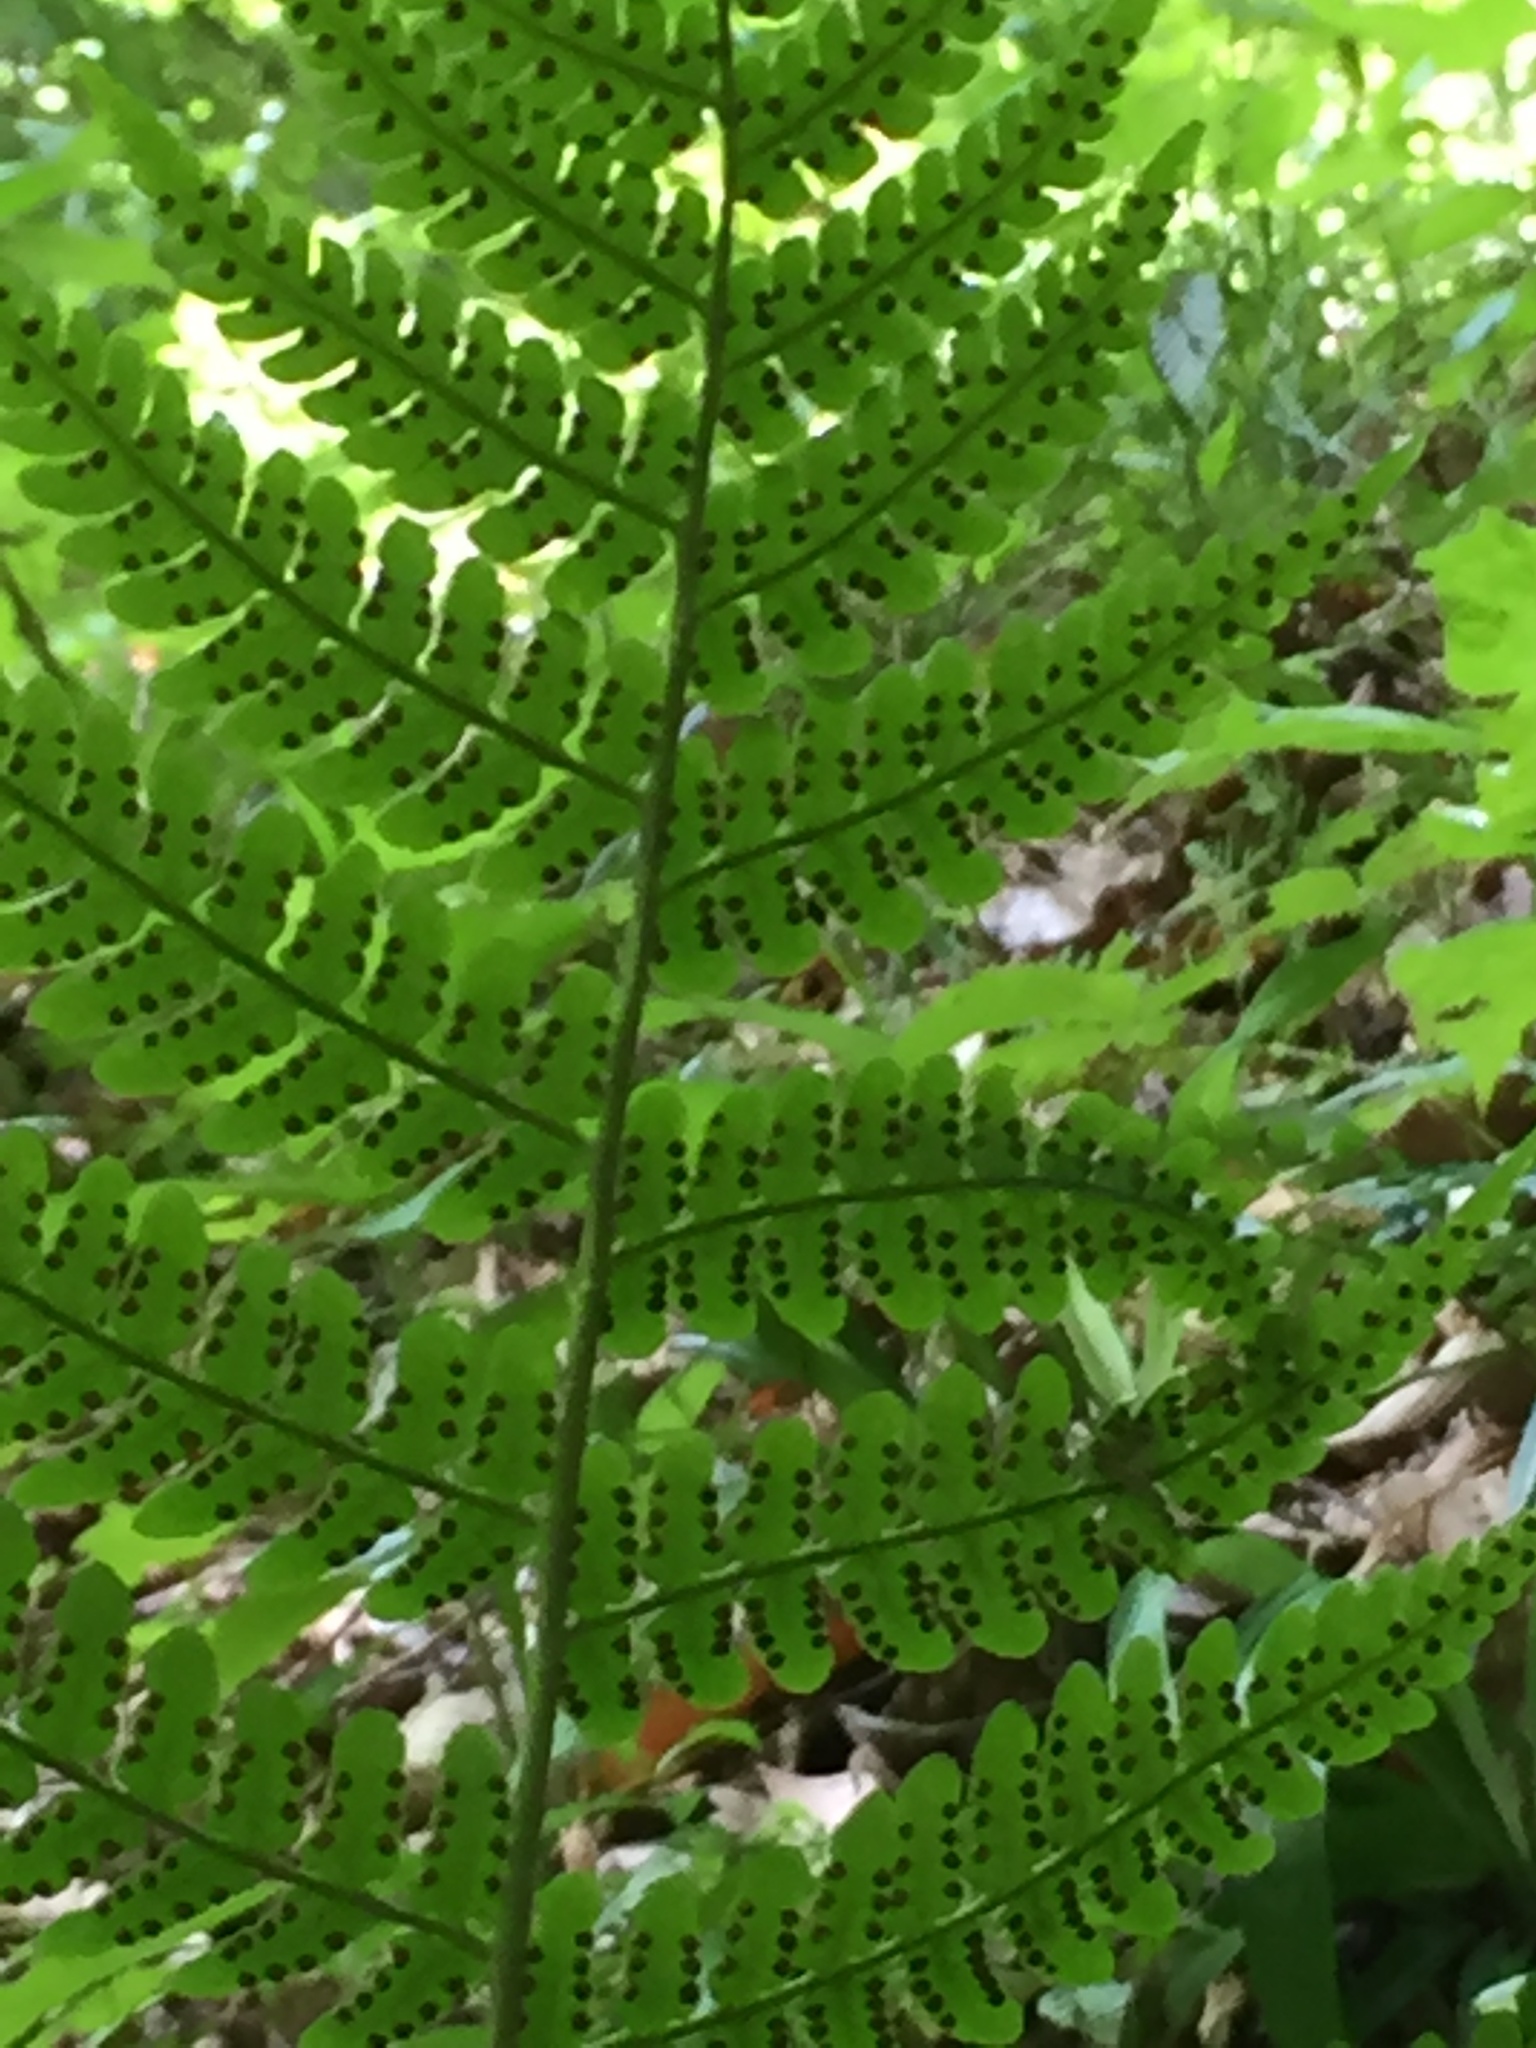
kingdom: Plantae
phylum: Tracheophyta
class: Polypodiopsida
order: Polypodiales
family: Dryopteridaceae
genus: Dryopteris
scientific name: Dryopteris marginalis
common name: Marginal wood fern
